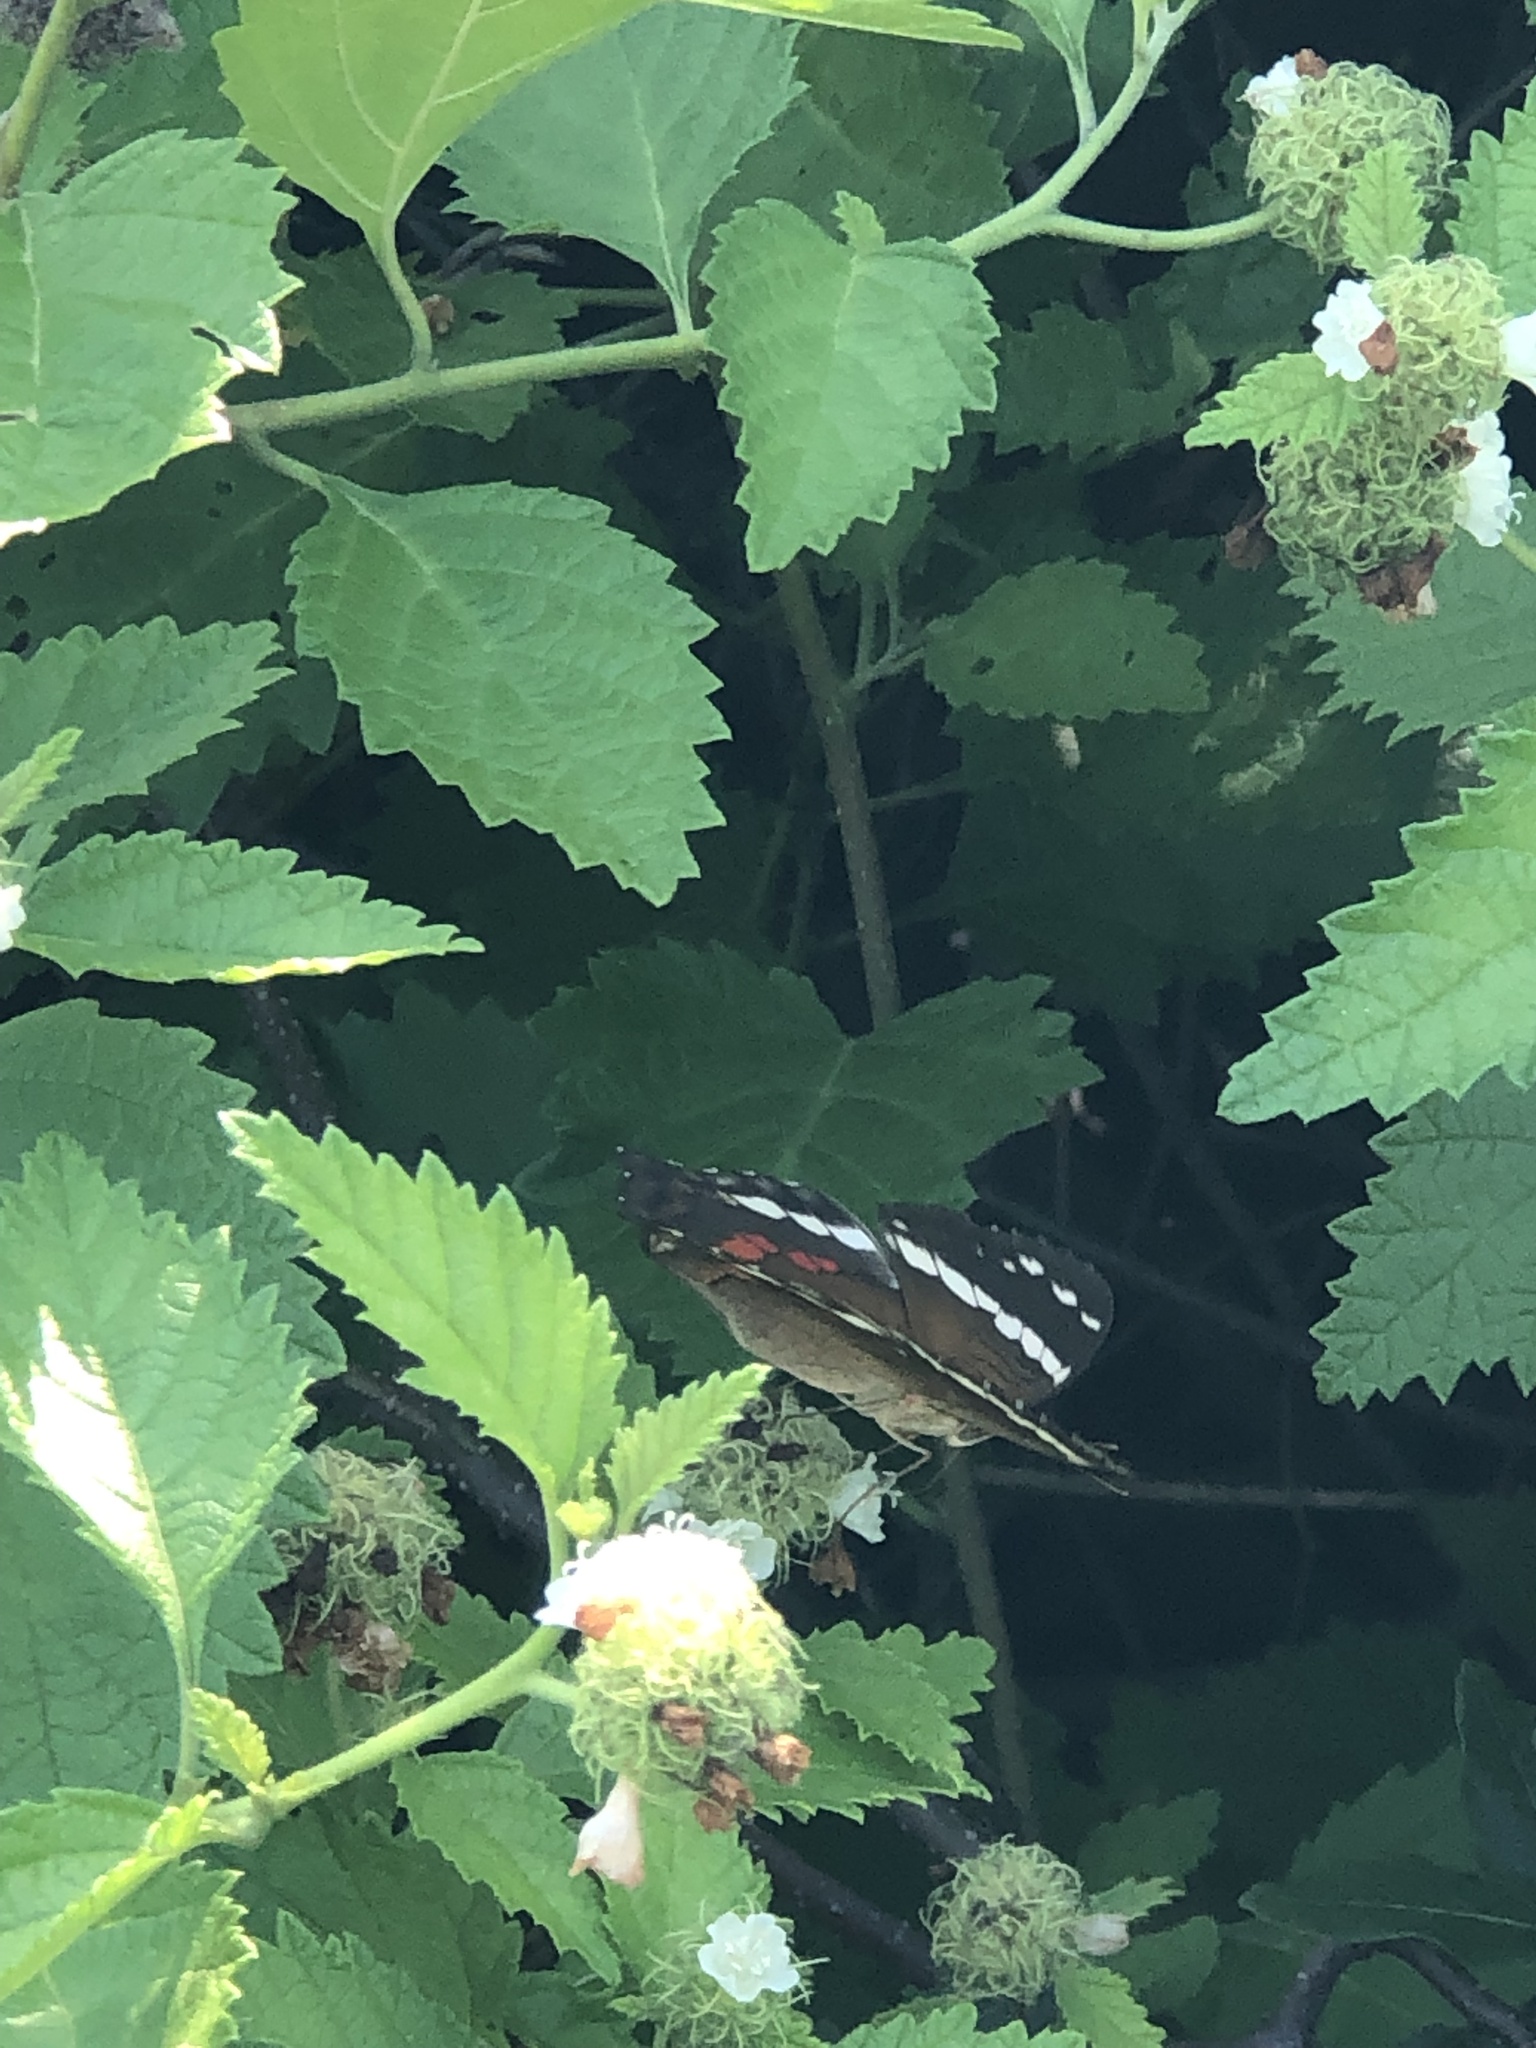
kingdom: Animalia
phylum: Arthropoda
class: Insecta
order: Lepidoptera
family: Nymphalidae
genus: Anartia
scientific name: Anartia fatima
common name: Banded peacock
